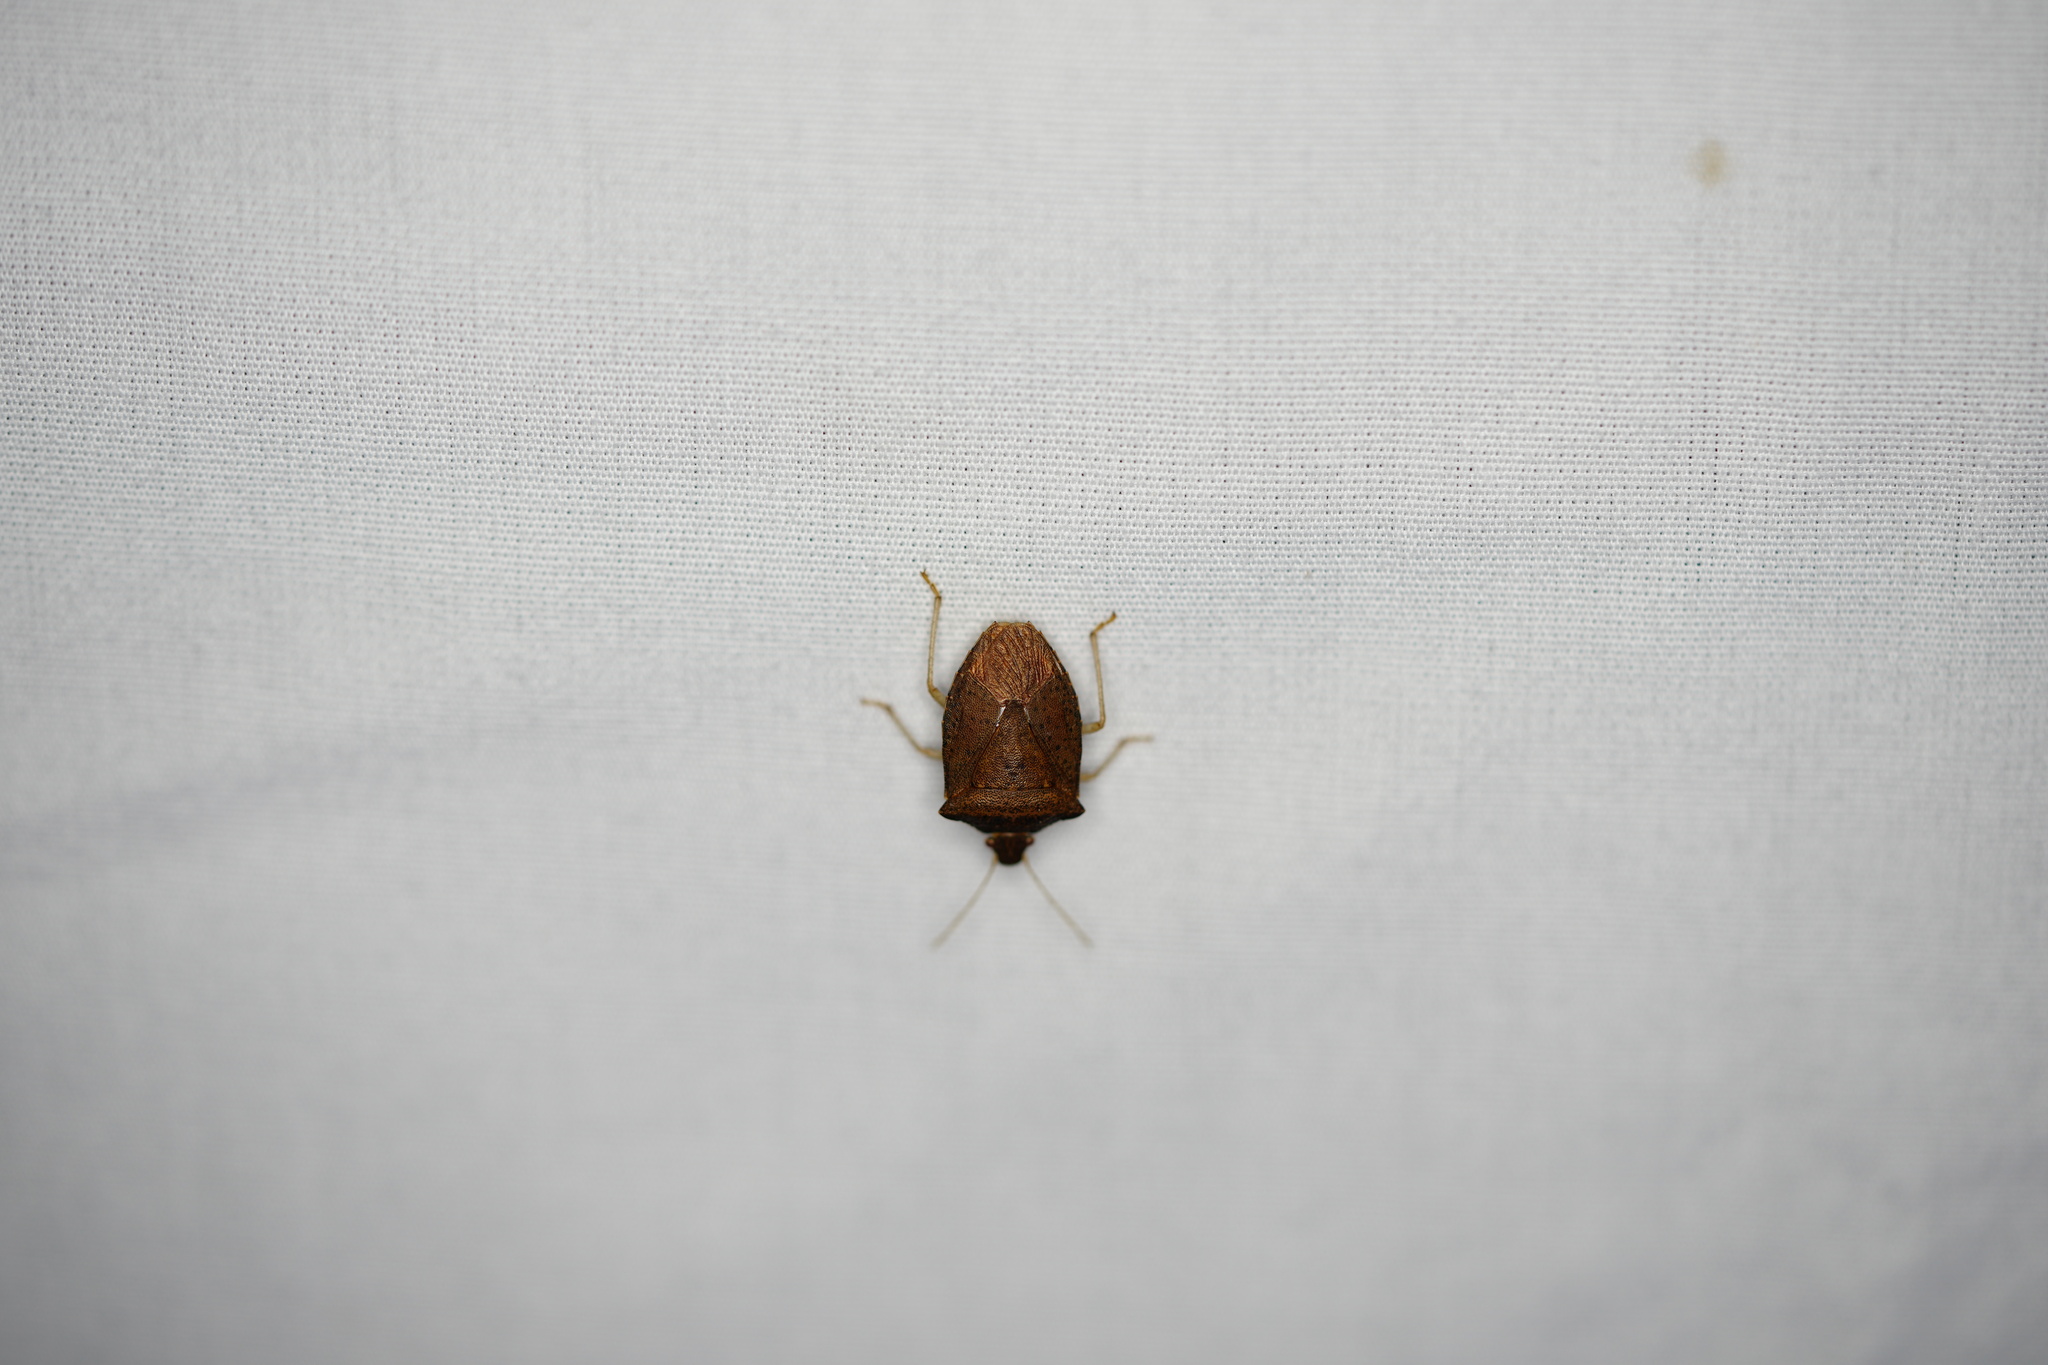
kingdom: Animalia
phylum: Arthropoda
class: Insecta
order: Hemiptera
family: Pentatomidae
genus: Euschistus
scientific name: Euschistus obscurus
